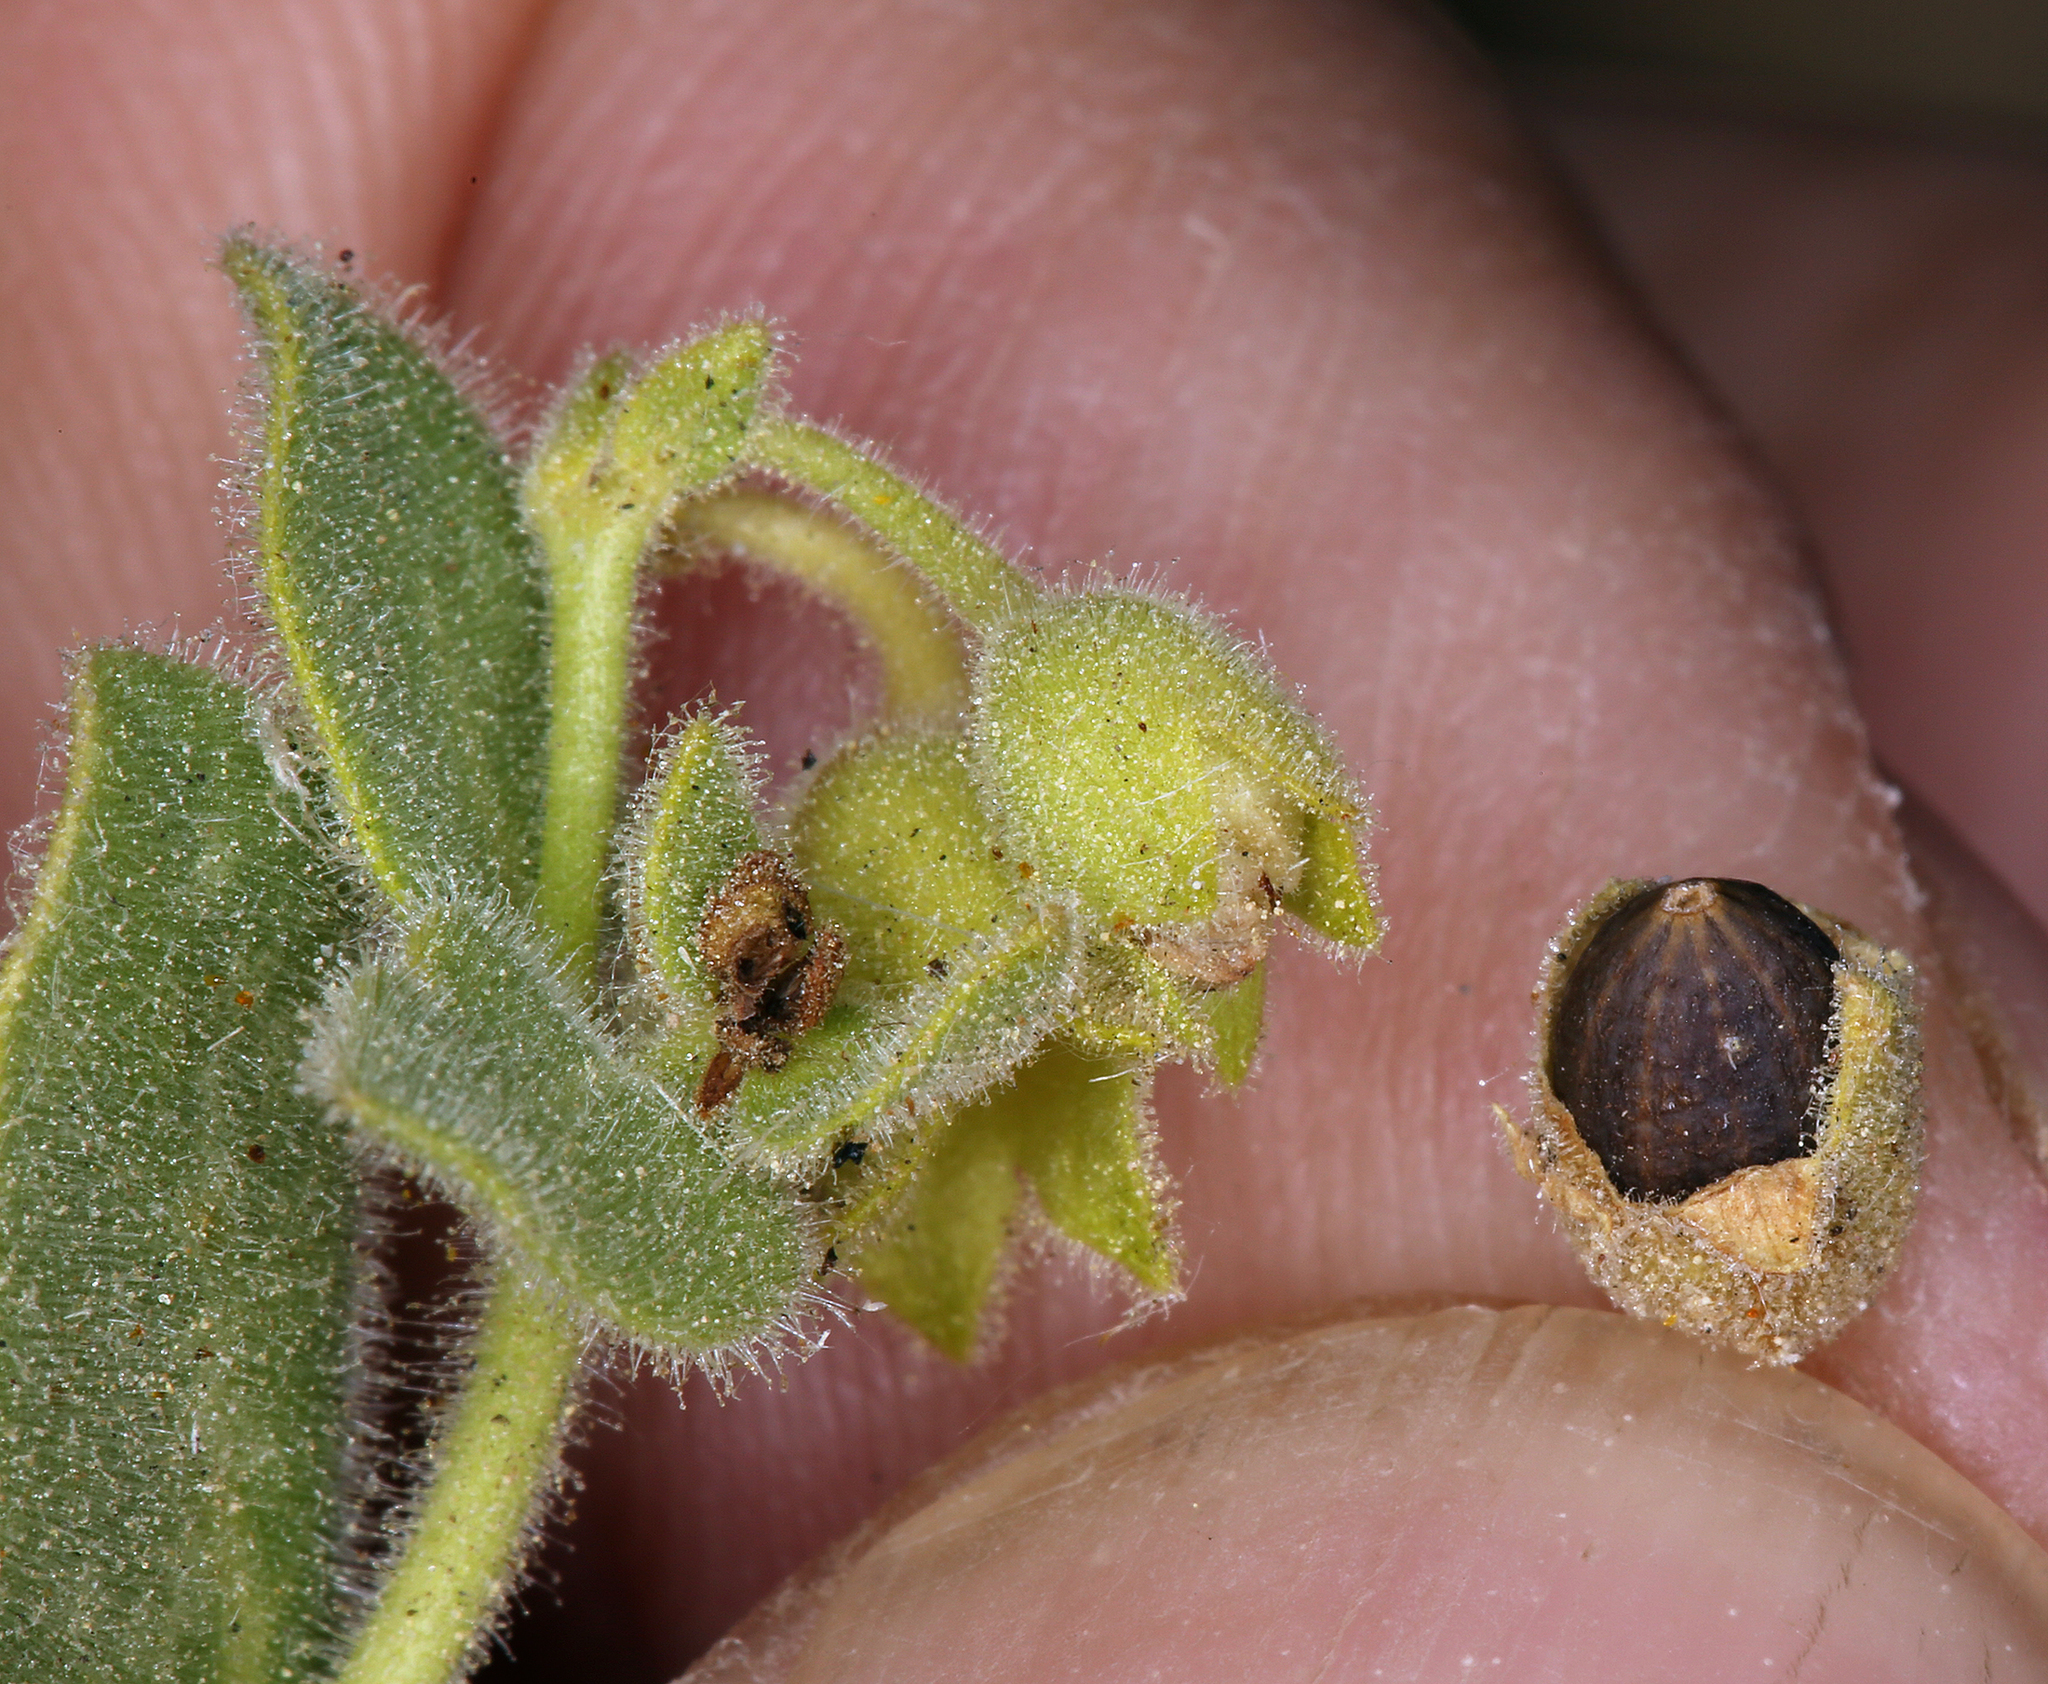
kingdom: Plantae
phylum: Tracheophyta
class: Magnoliopsida
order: Caryophyllales
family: Nyctaginaceae
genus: Mirabilis
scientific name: Mirabilis laevis
